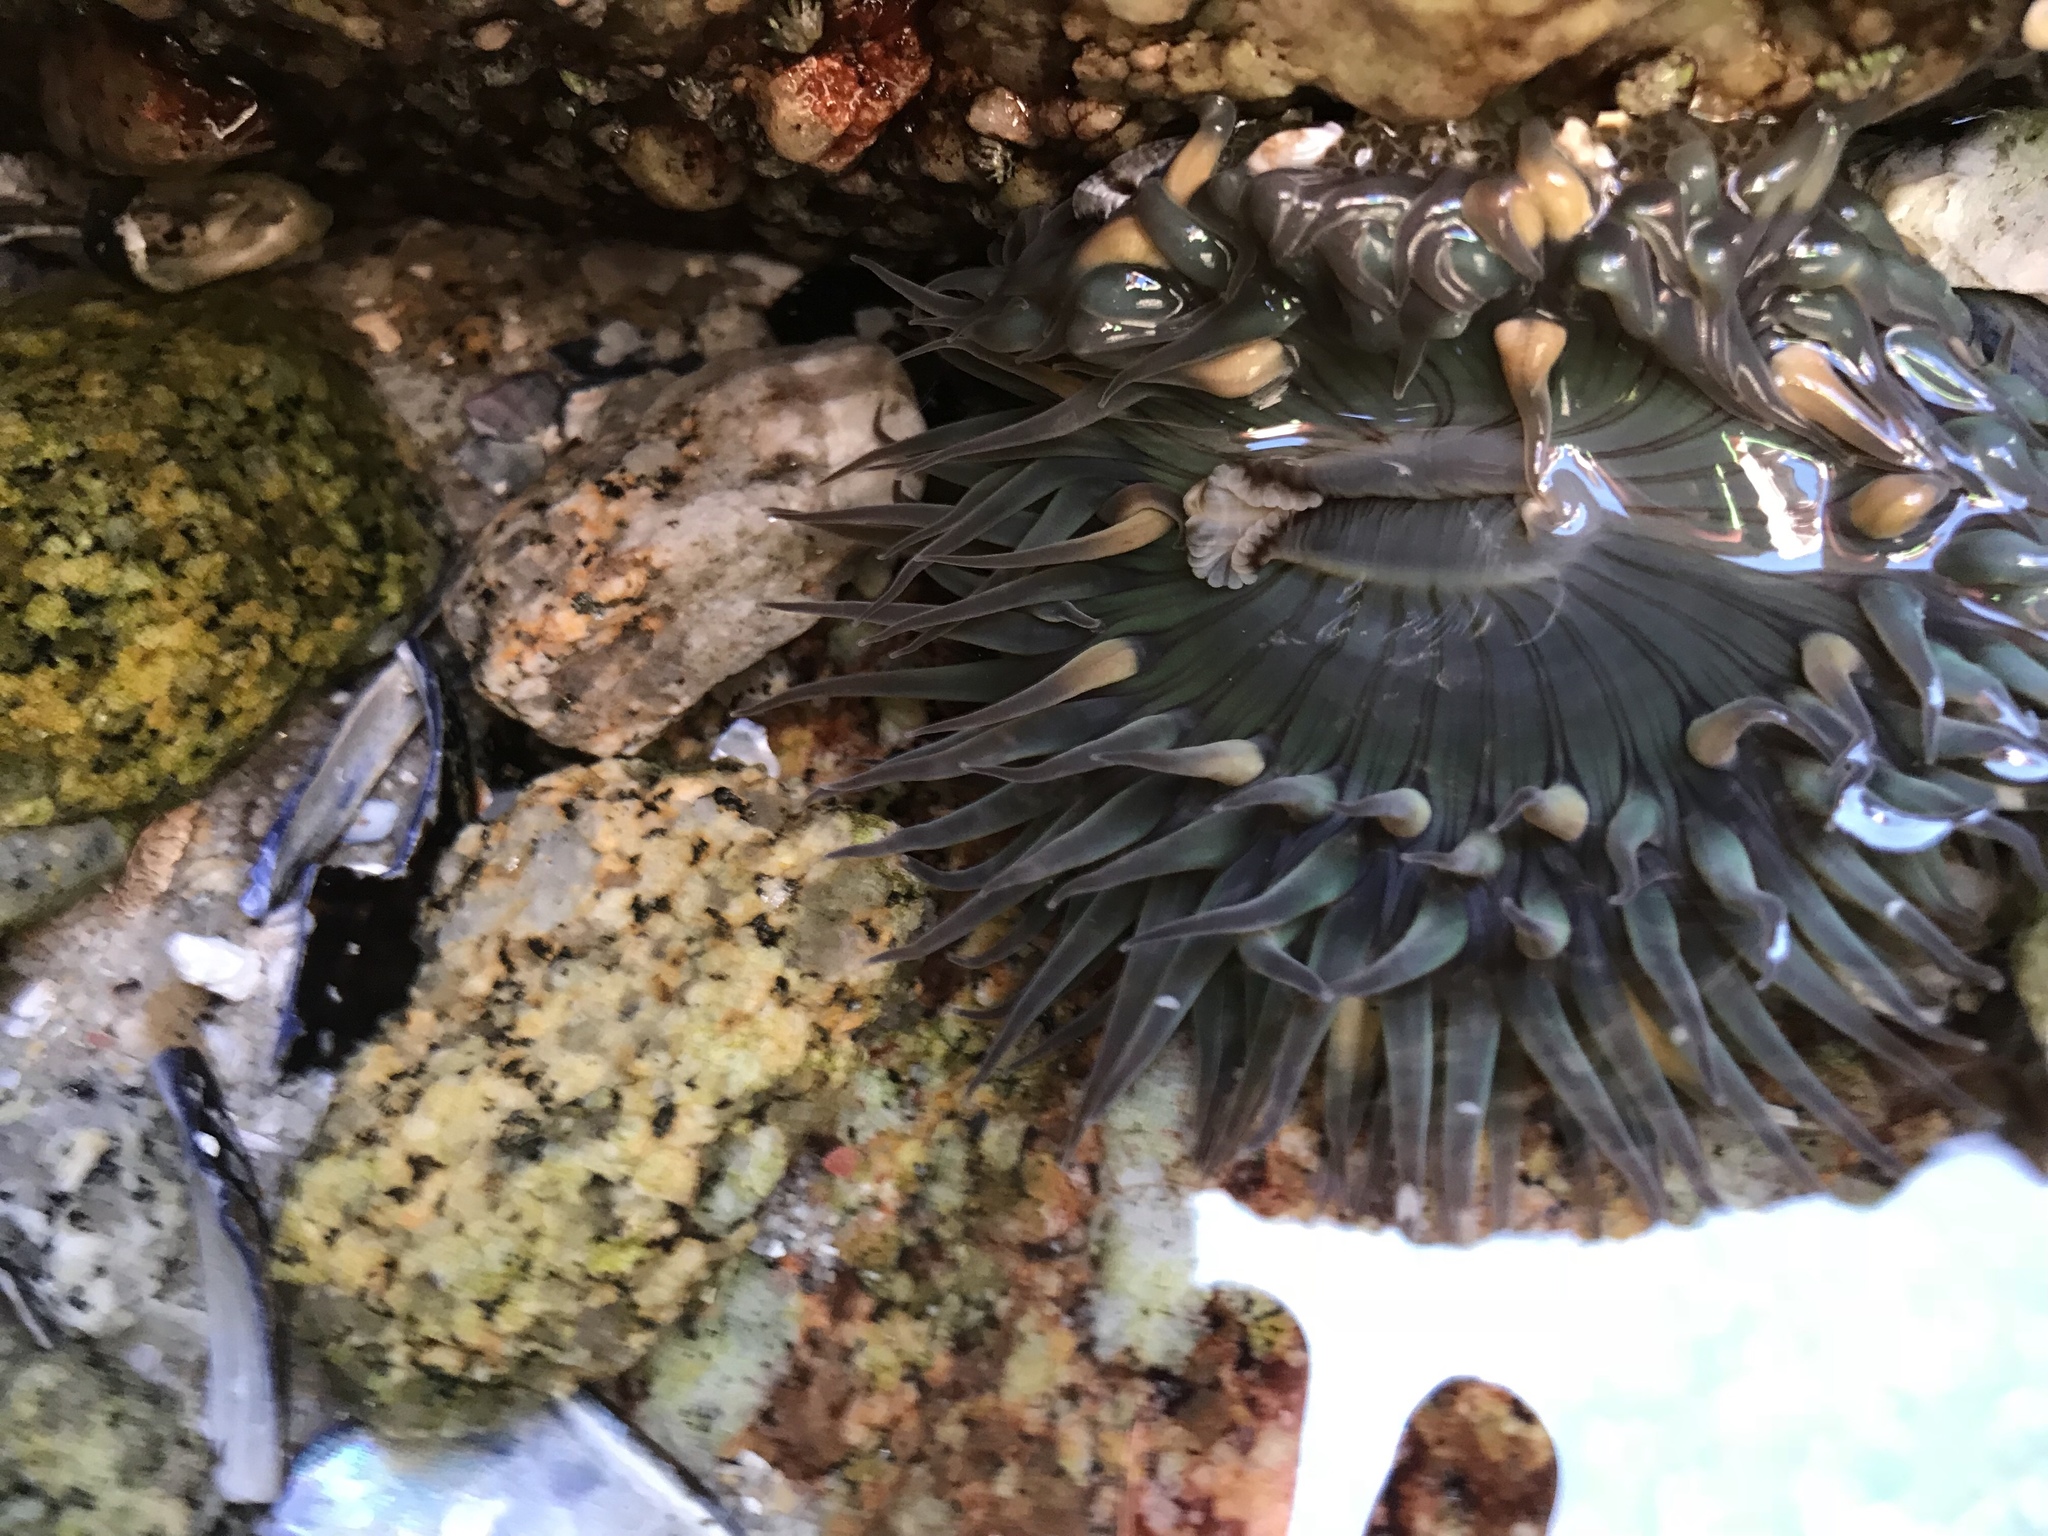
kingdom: Animalia
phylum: Cnidaria
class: Anthozoa
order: Actiniaria
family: Actiniidae
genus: Anthopleura
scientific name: Anthopleura sola
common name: Sun anemone
